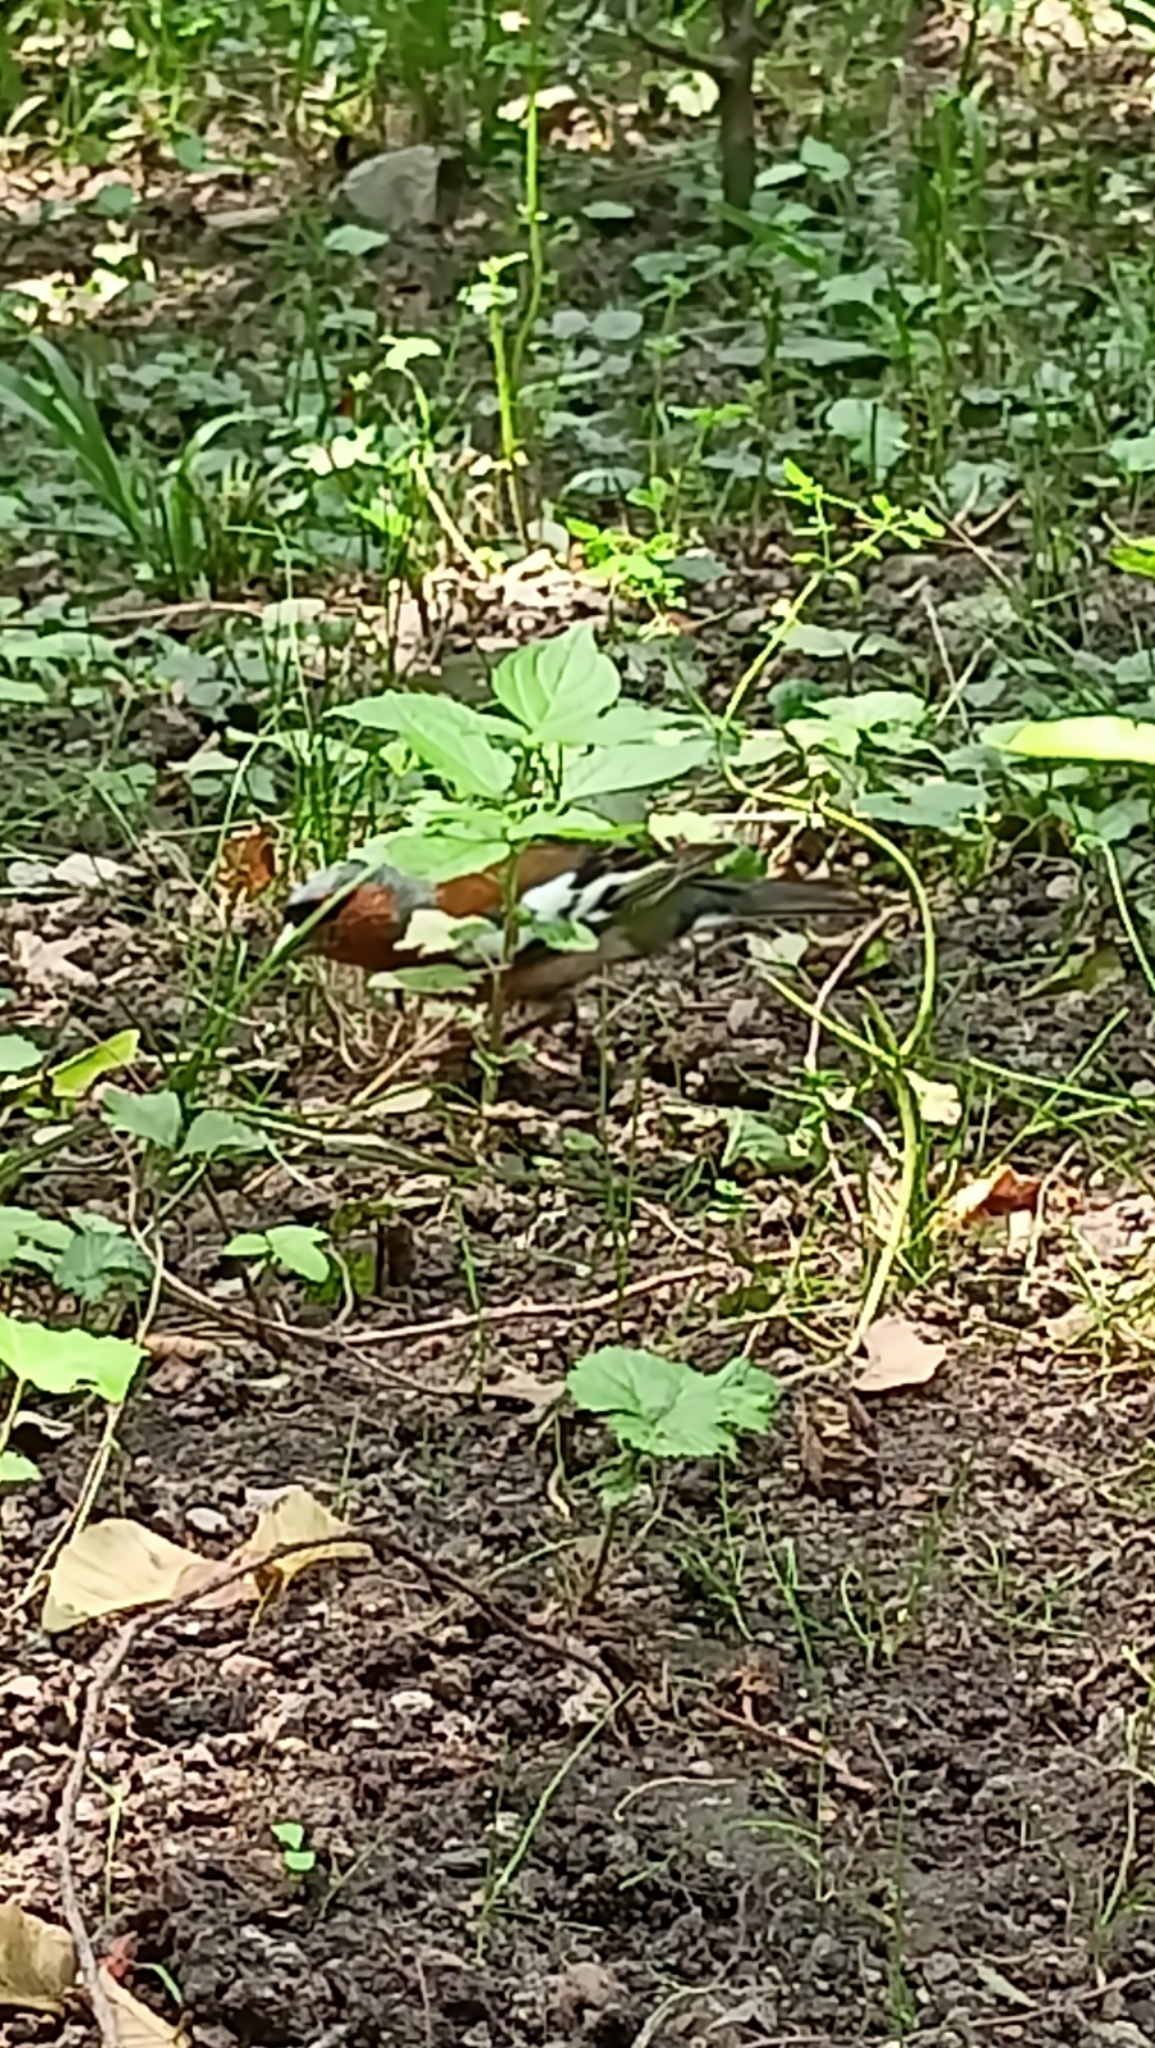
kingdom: Animalia
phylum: Chordata
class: Aves
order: Passeriformes
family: Fringillidae
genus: Fringilla
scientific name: Fringilla coelebs
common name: Common chaffinch
